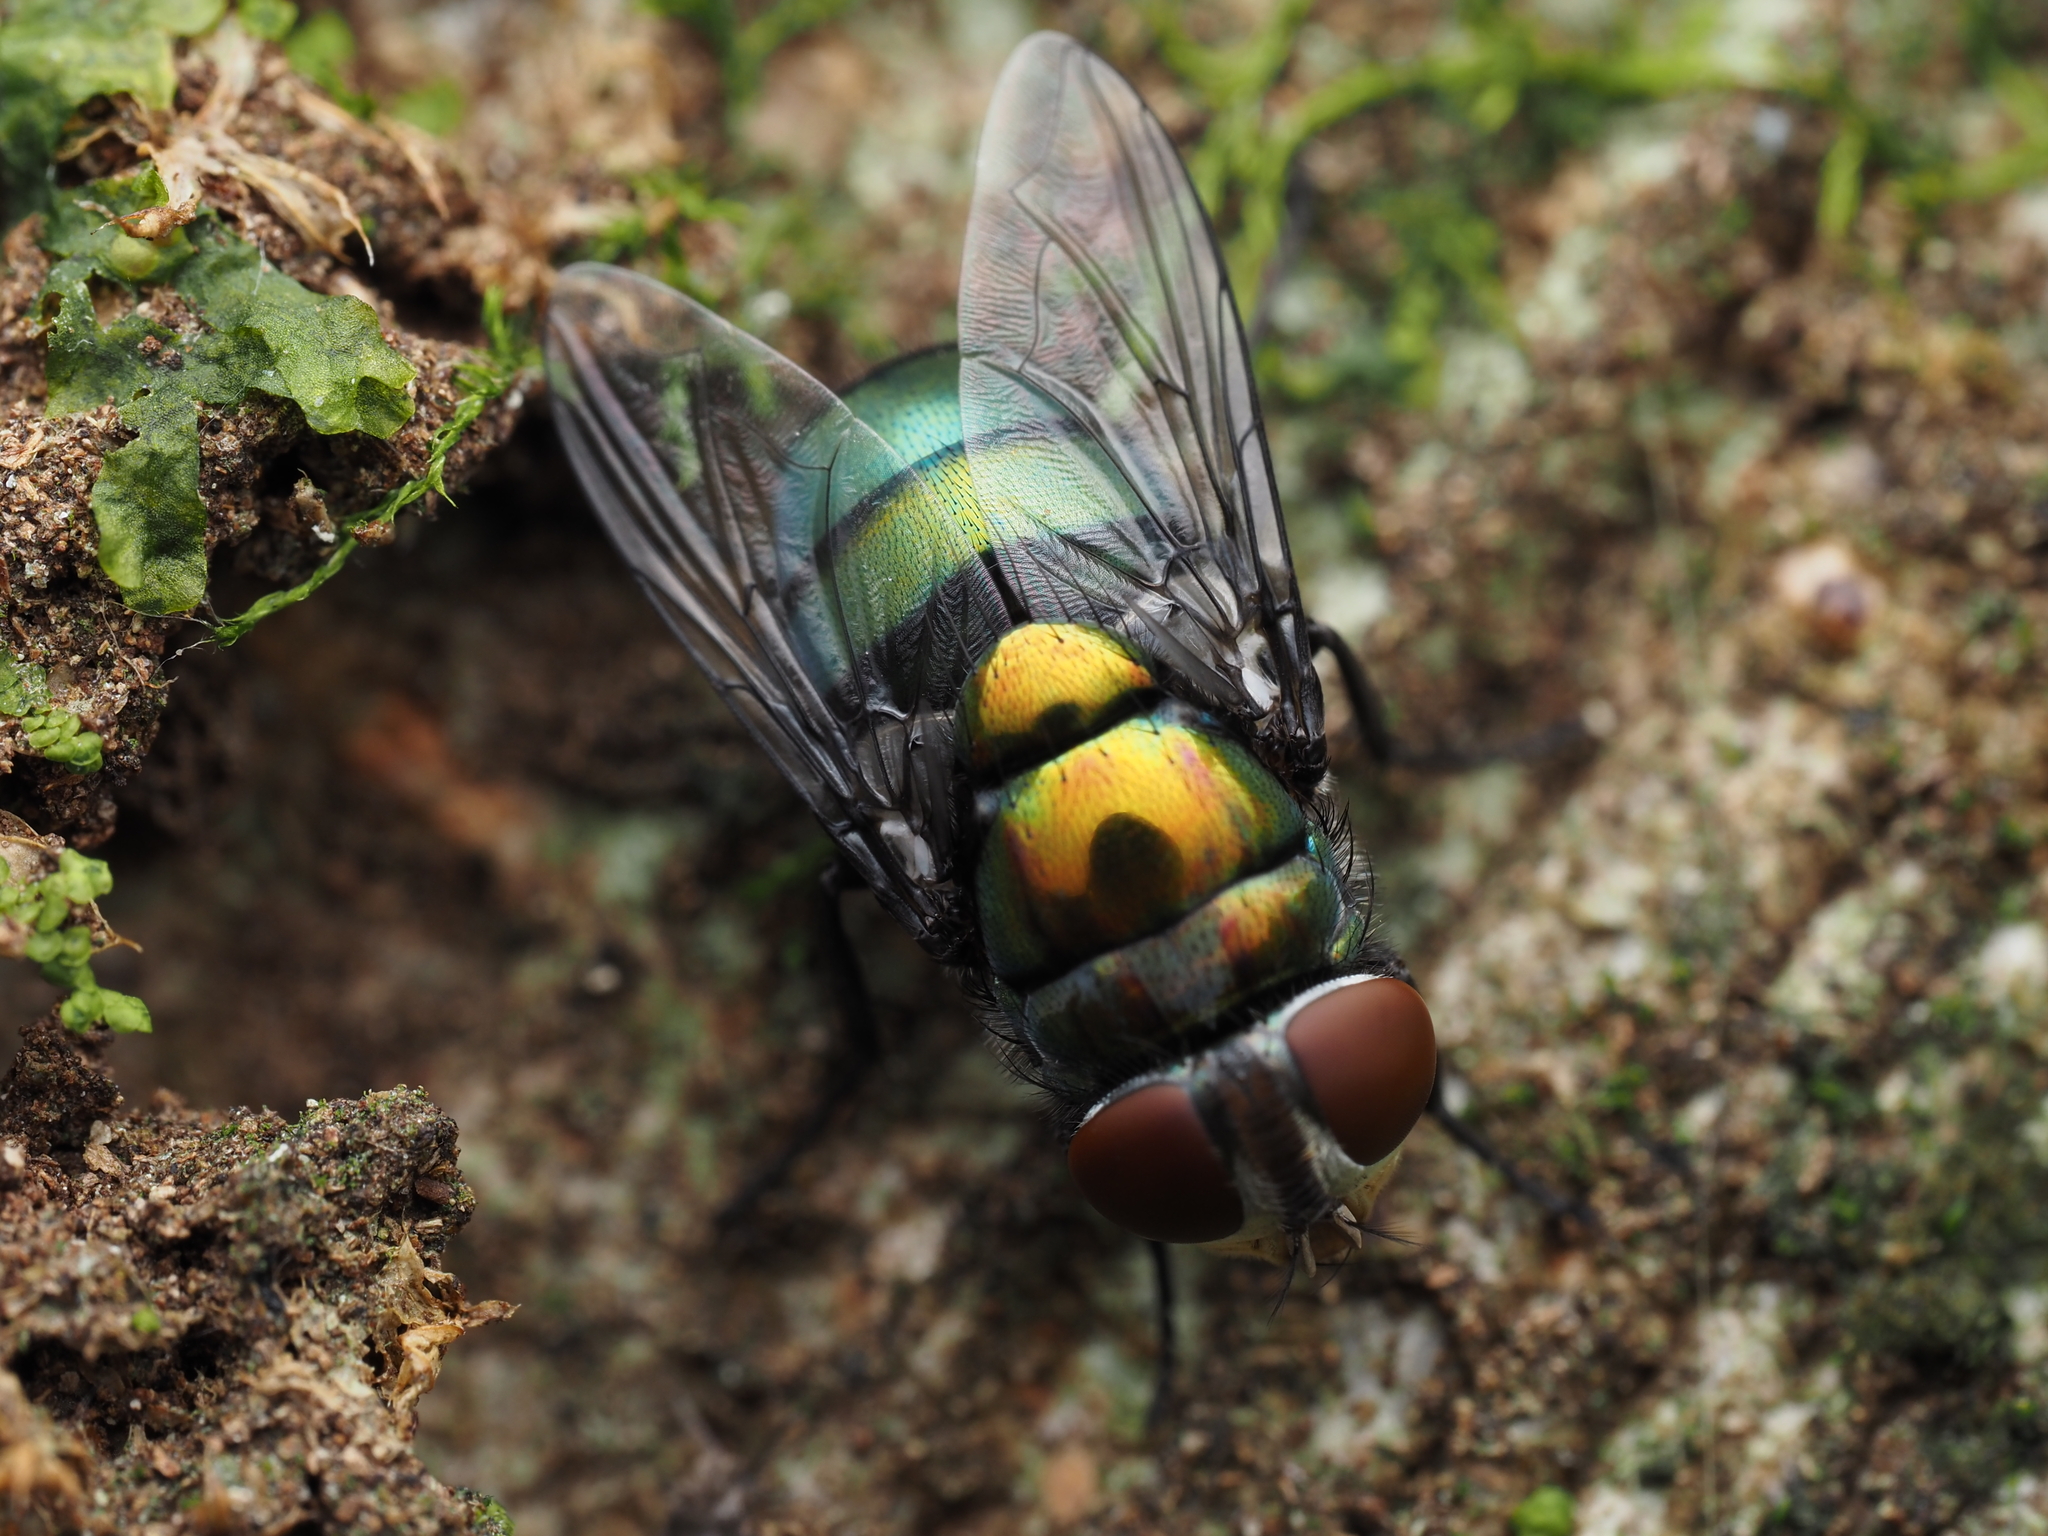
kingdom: Animalia
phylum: Arthropoda
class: Insecta
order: Diptera
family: Calliphoridae
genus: Chrysomya
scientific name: Chrysomya megacephala
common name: Blow fly
